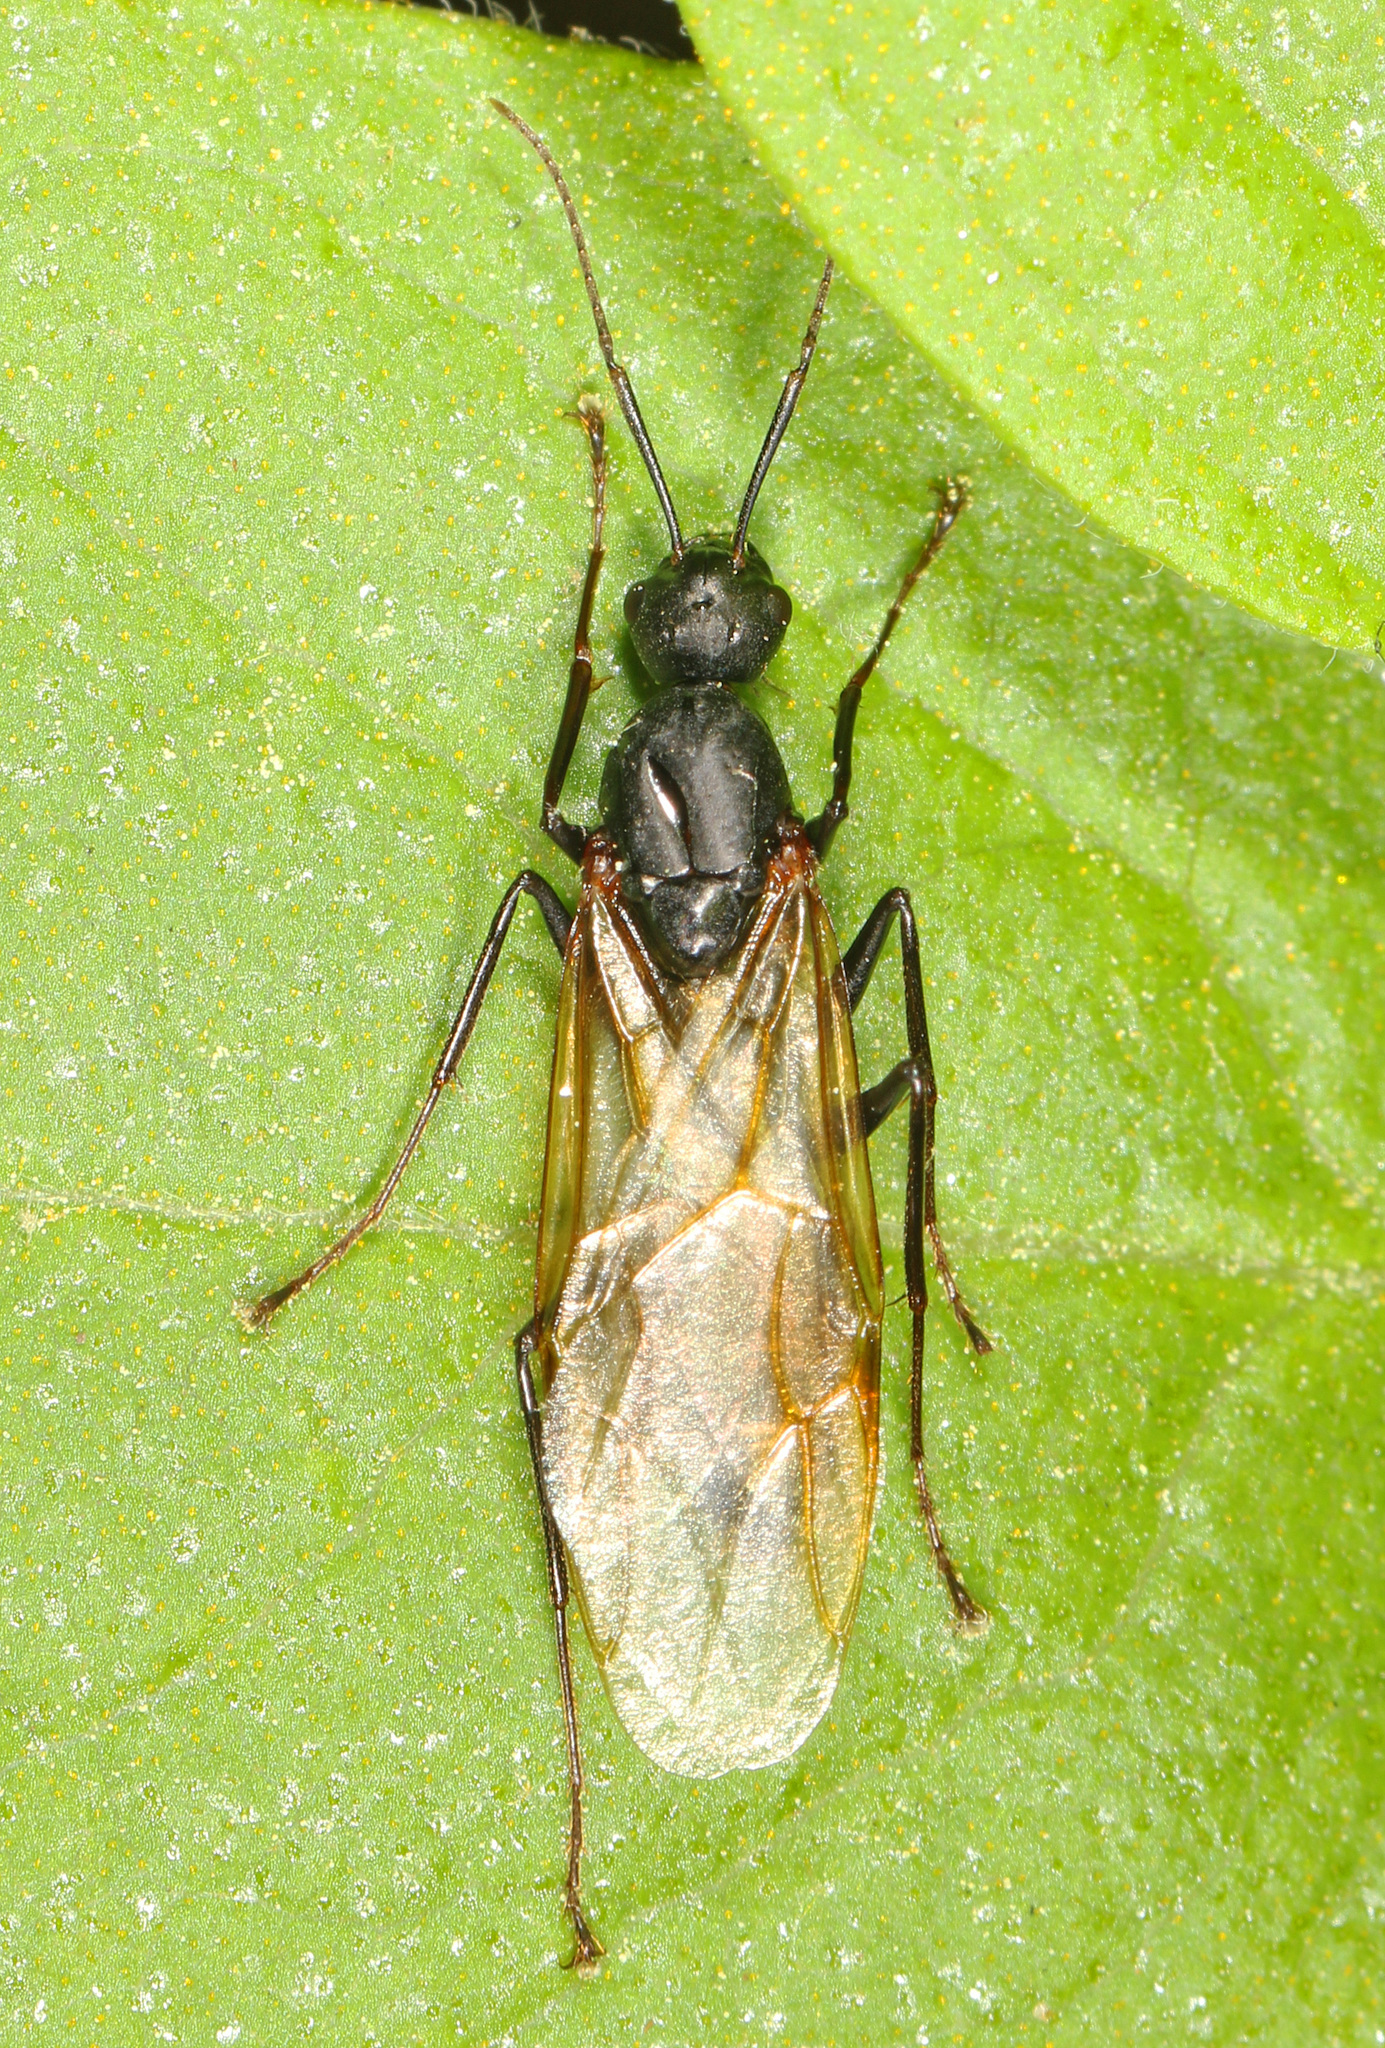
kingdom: Animalia
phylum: Arthropoda
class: Insecta
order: Hymenoptera
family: Formicidae
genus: Camponotus
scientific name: Camponotus pennsylvanicus
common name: Black carpenter ant
